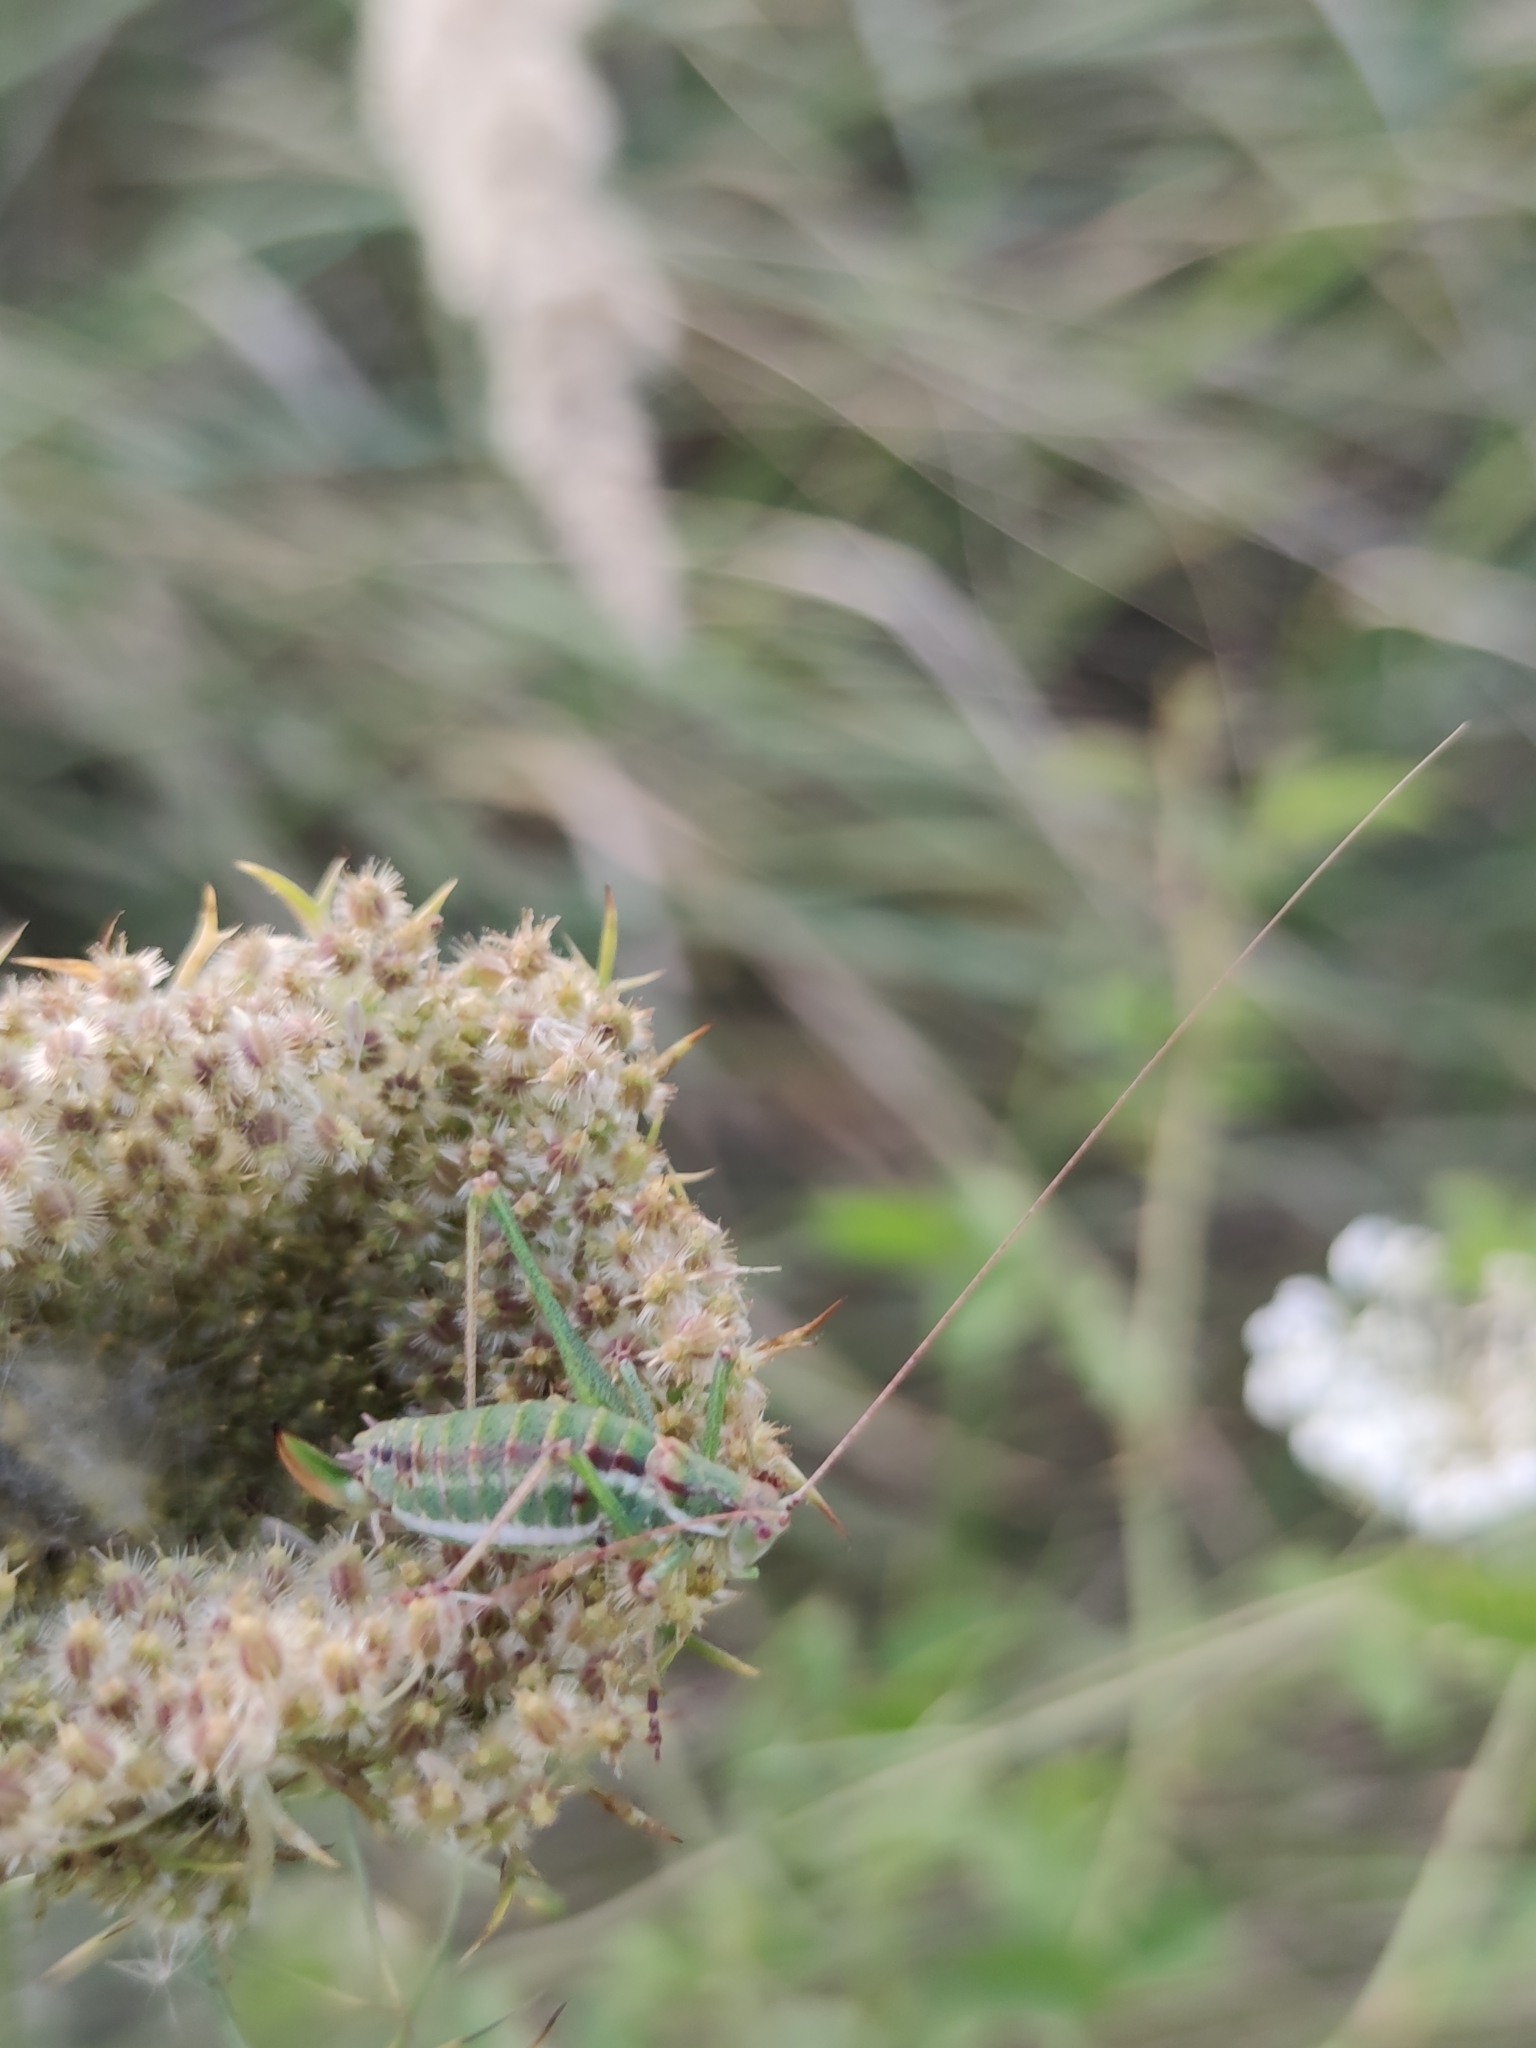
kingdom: Animalia
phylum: Arthropoda
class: Insecta
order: Orthoptera
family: Tettigoniidae
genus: Leptophyes
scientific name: Leptophyes albovittata
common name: Striped bush-cricket
